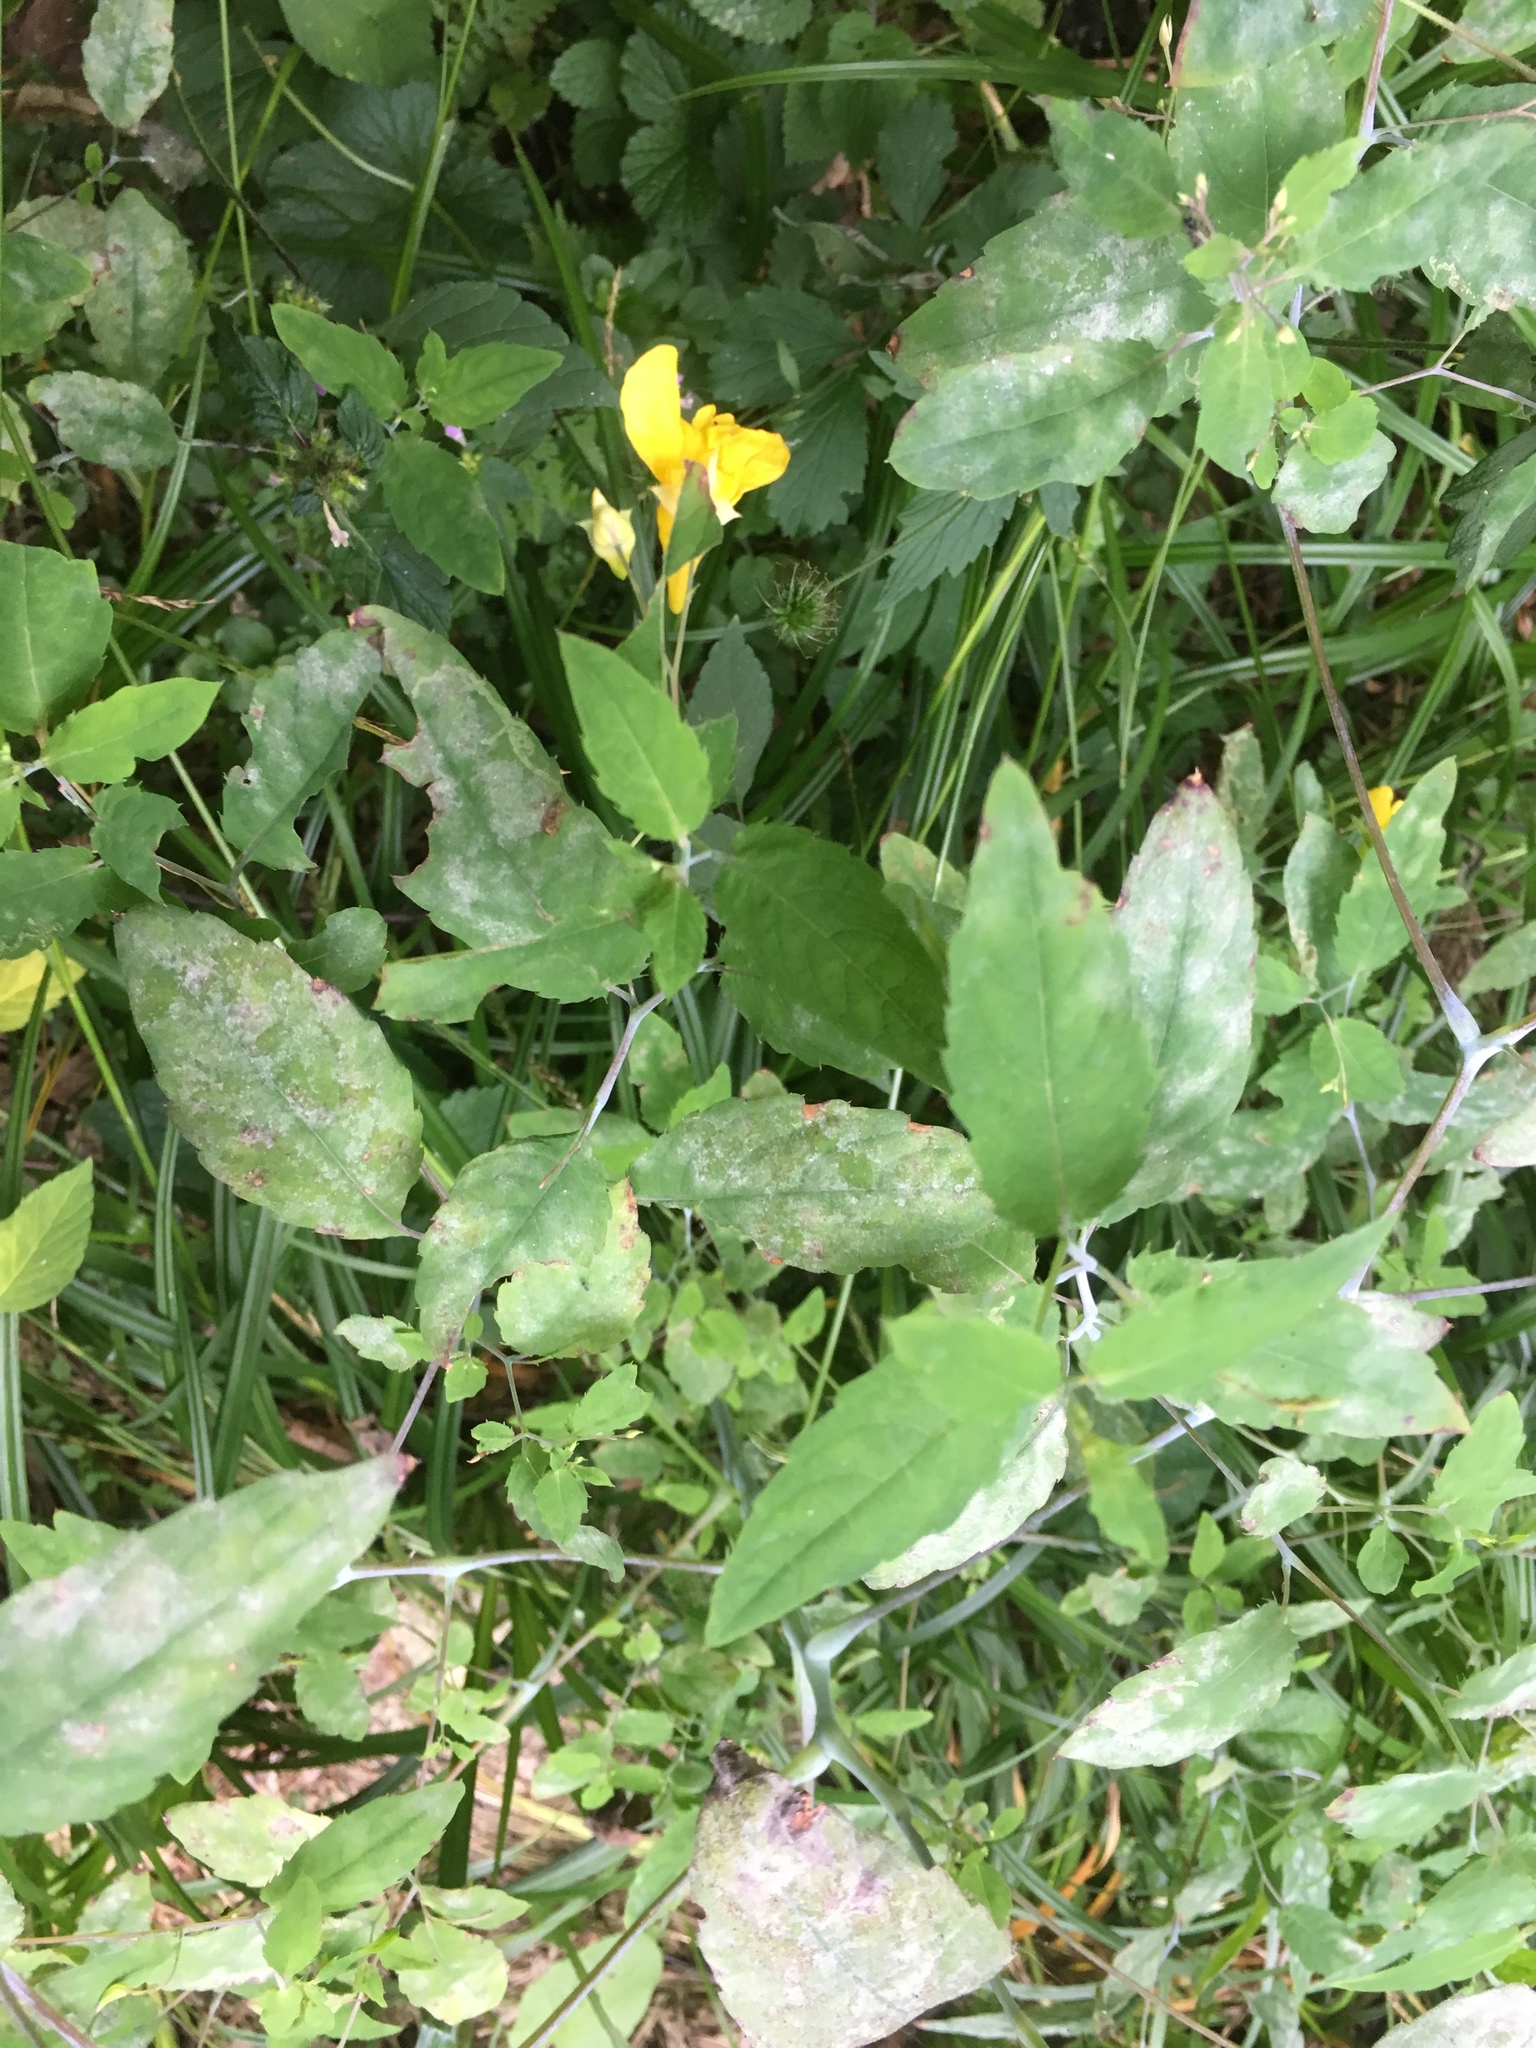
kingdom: Plantae
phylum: Tracheophyta
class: Magnoliopsida
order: Ericales
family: Balsaminaceae
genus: Impatiens
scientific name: Impatiens noli-tangere
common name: Touch-me-not balsam
